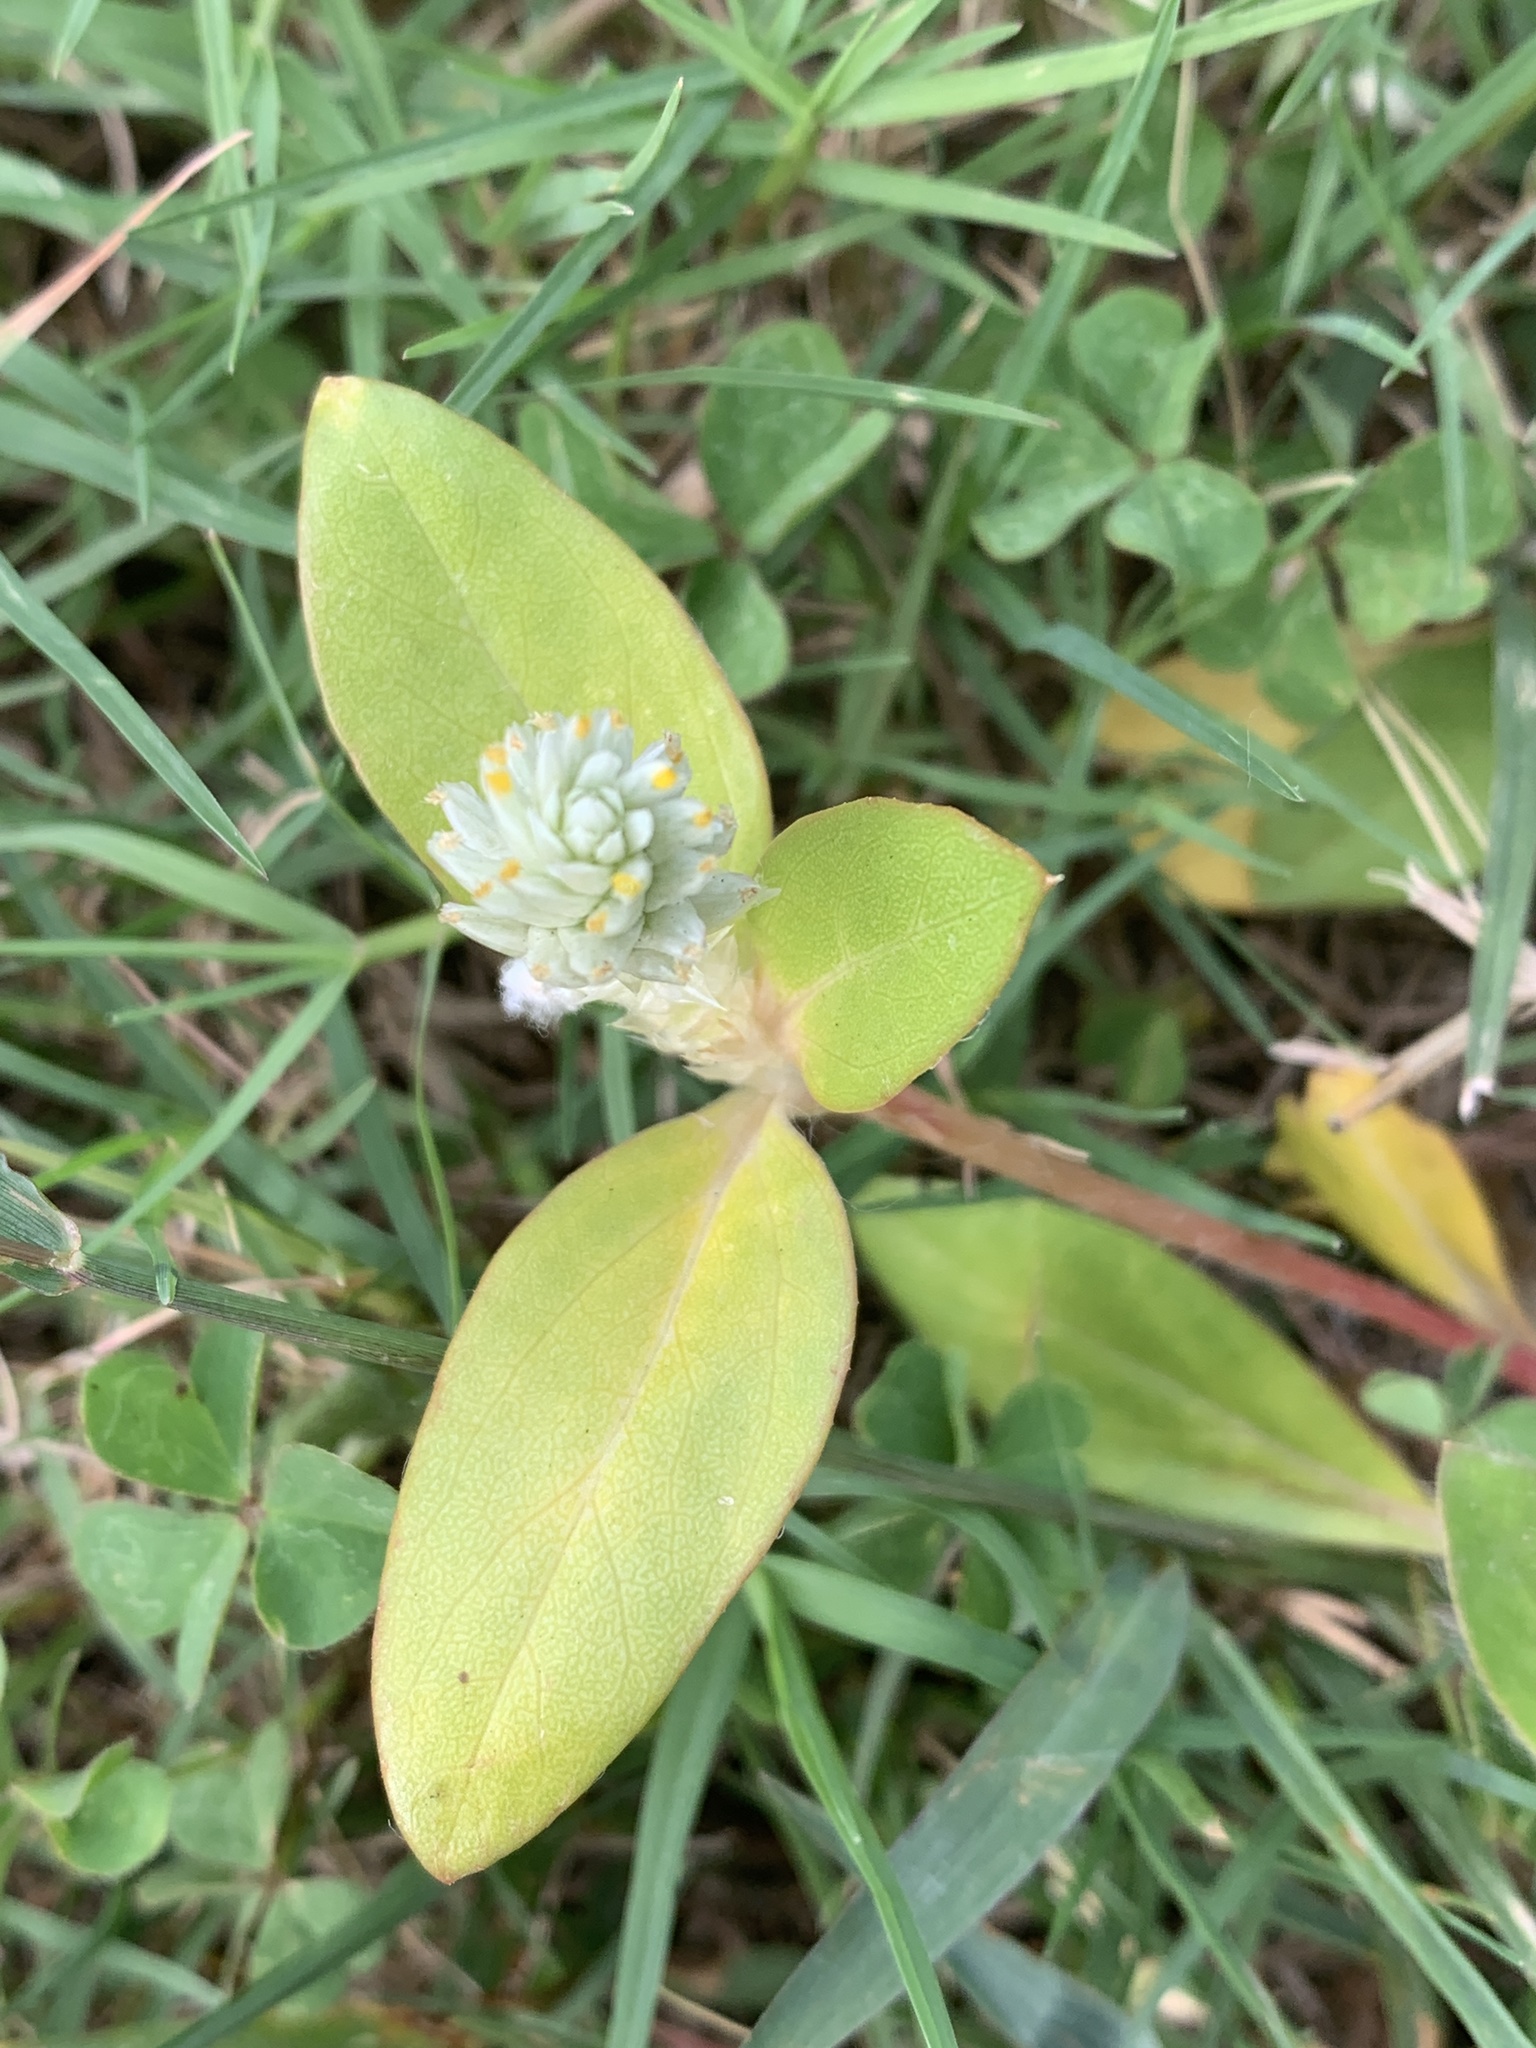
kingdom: Plantae
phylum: Tracheophyta
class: Magnoliopsida
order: Caryophyllales
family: Amaranthaceae
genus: Gomphrena
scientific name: Gomphrena celosioides
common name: Gomphrena-weed
